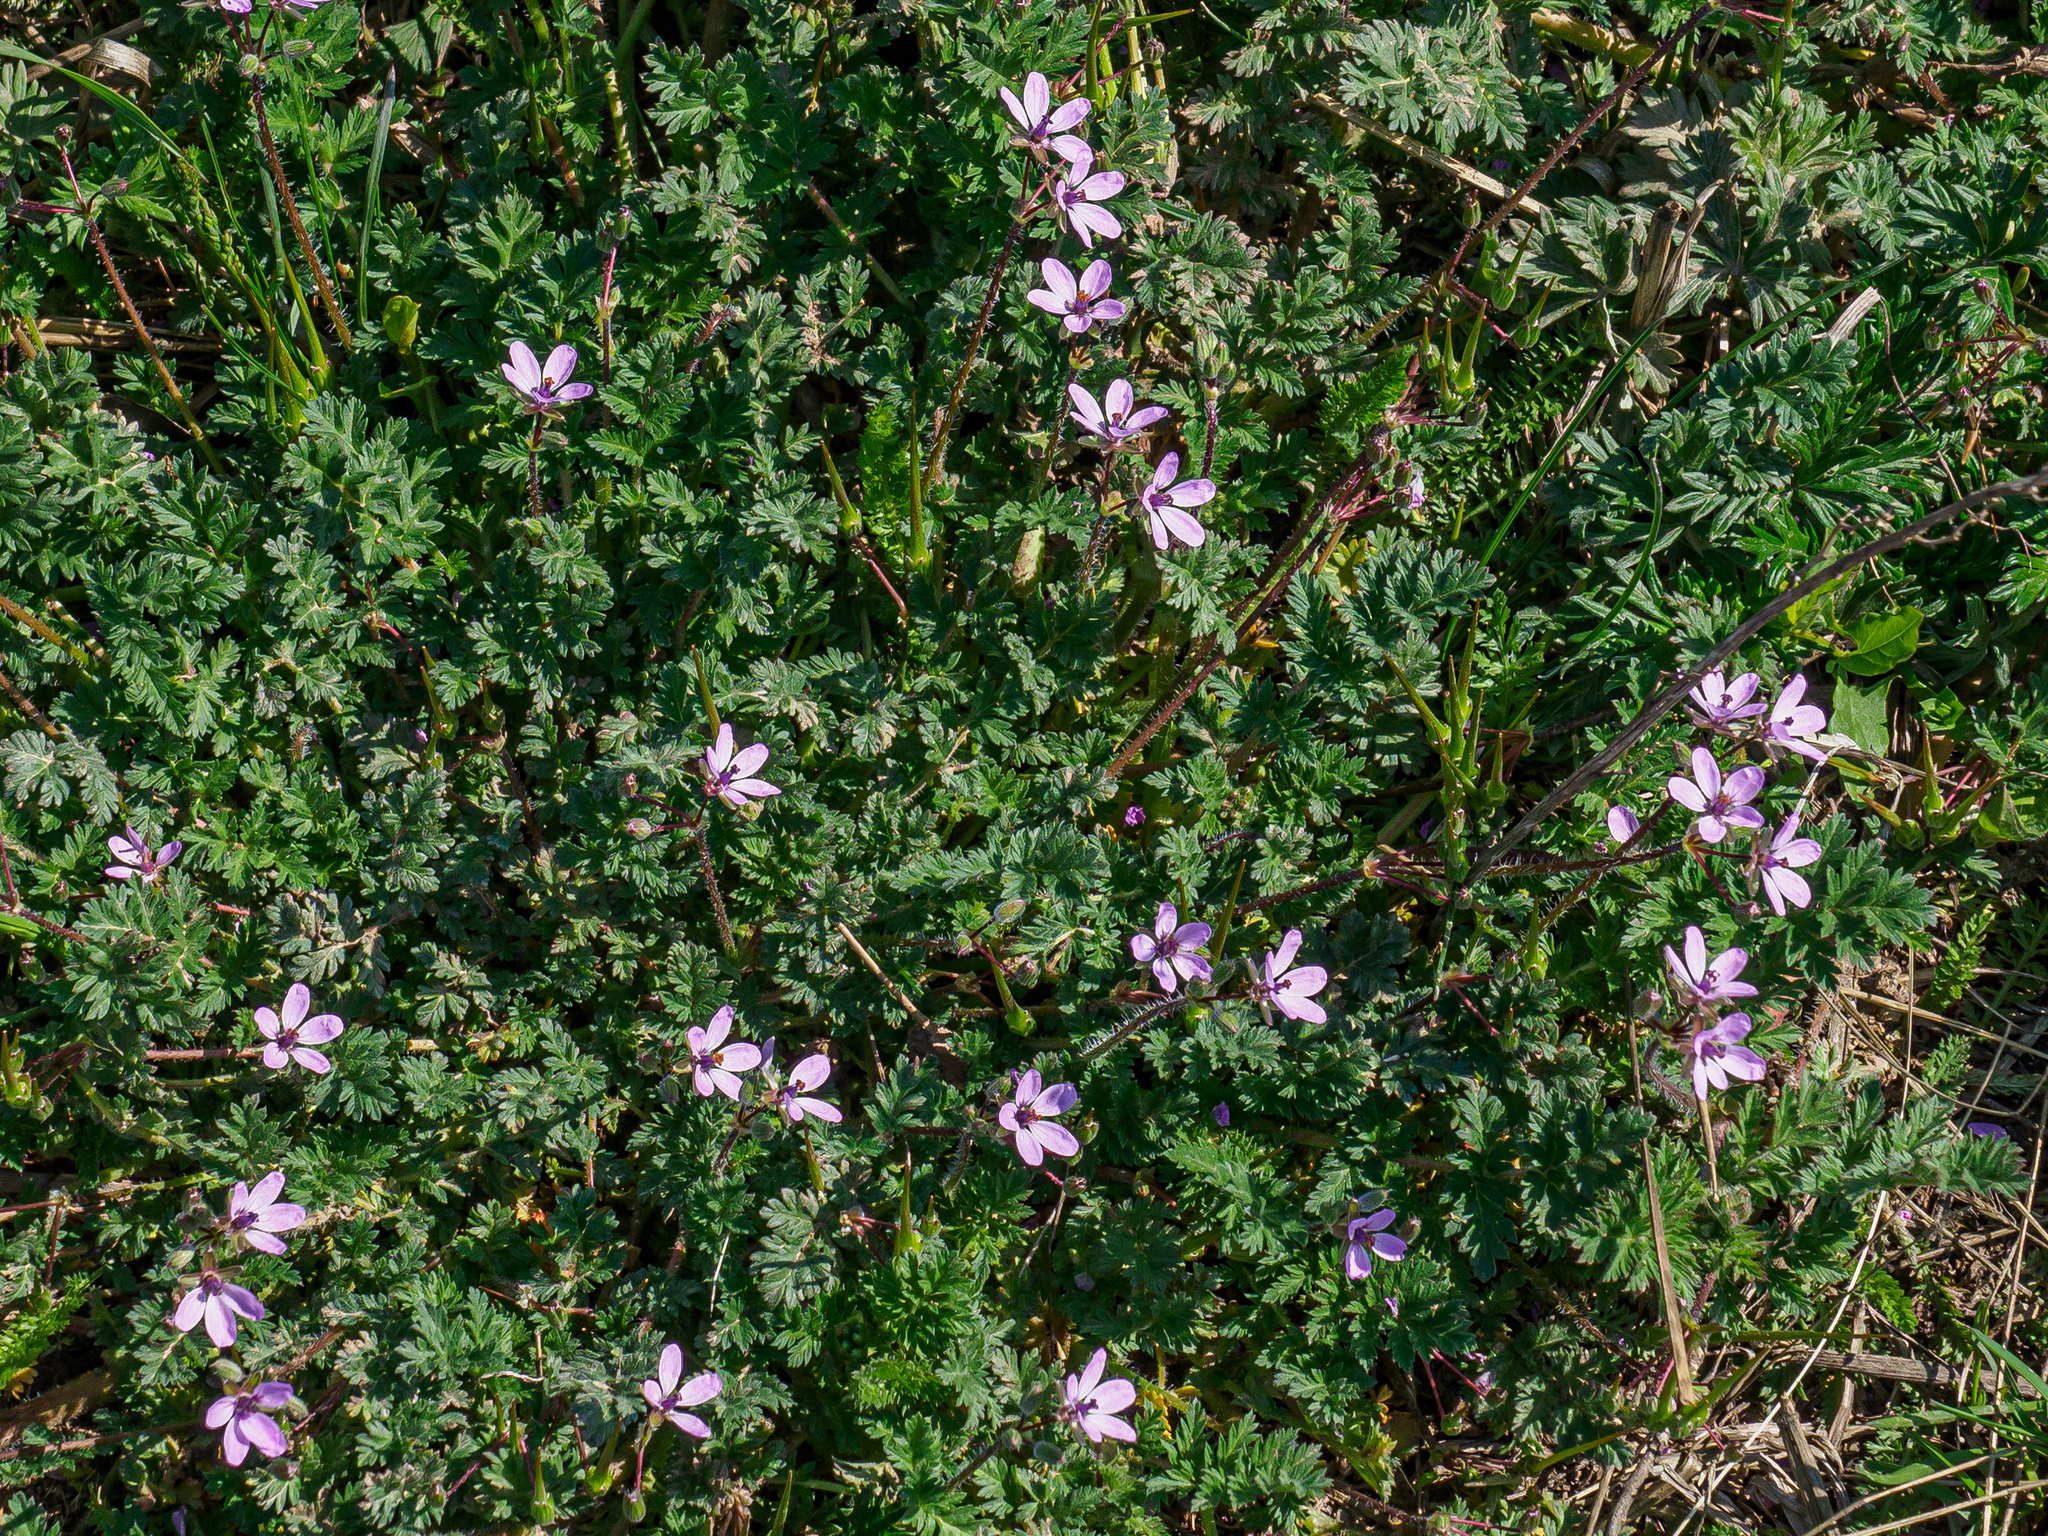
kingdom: Plantae
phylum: Tracheophyta
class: Magnoliopsida
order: Geraniales
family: Geraniaceae
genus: Erodium
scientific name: Erodium cicutarium
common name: Common stork's-bill
